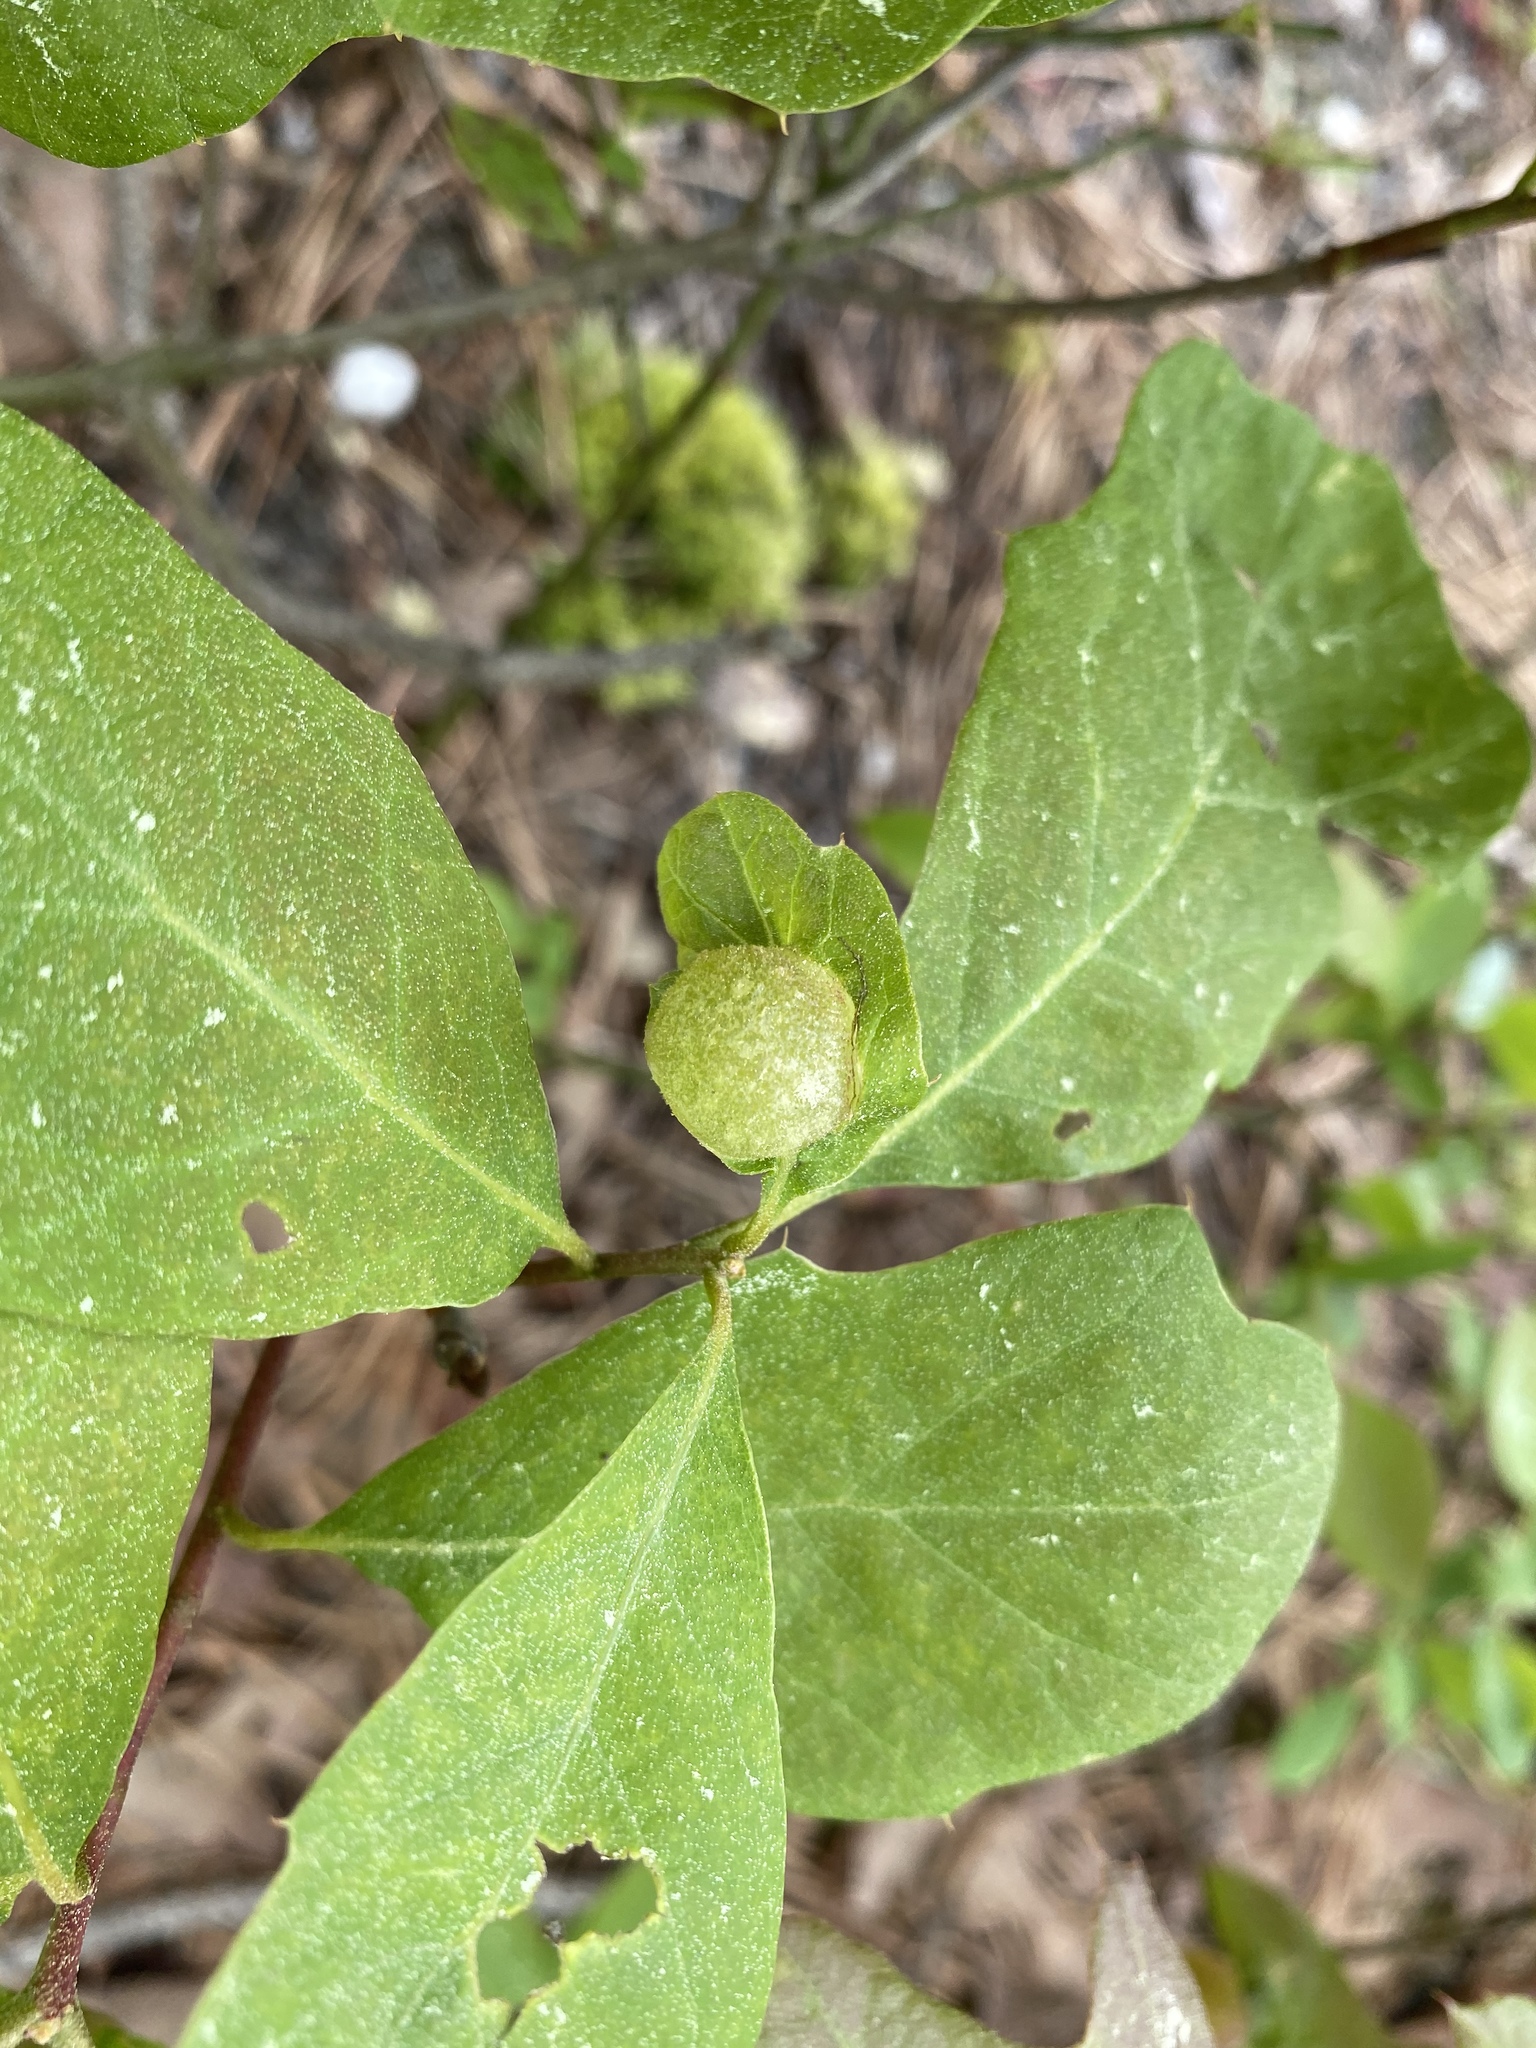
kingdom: Animalia
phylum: Arthropoda
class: Insecta
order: Hymenoptera
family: Cynipidae
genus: Dryocosmus
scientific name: Dryocosmus quercuspalustris
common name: Succulent oak gall wasp
